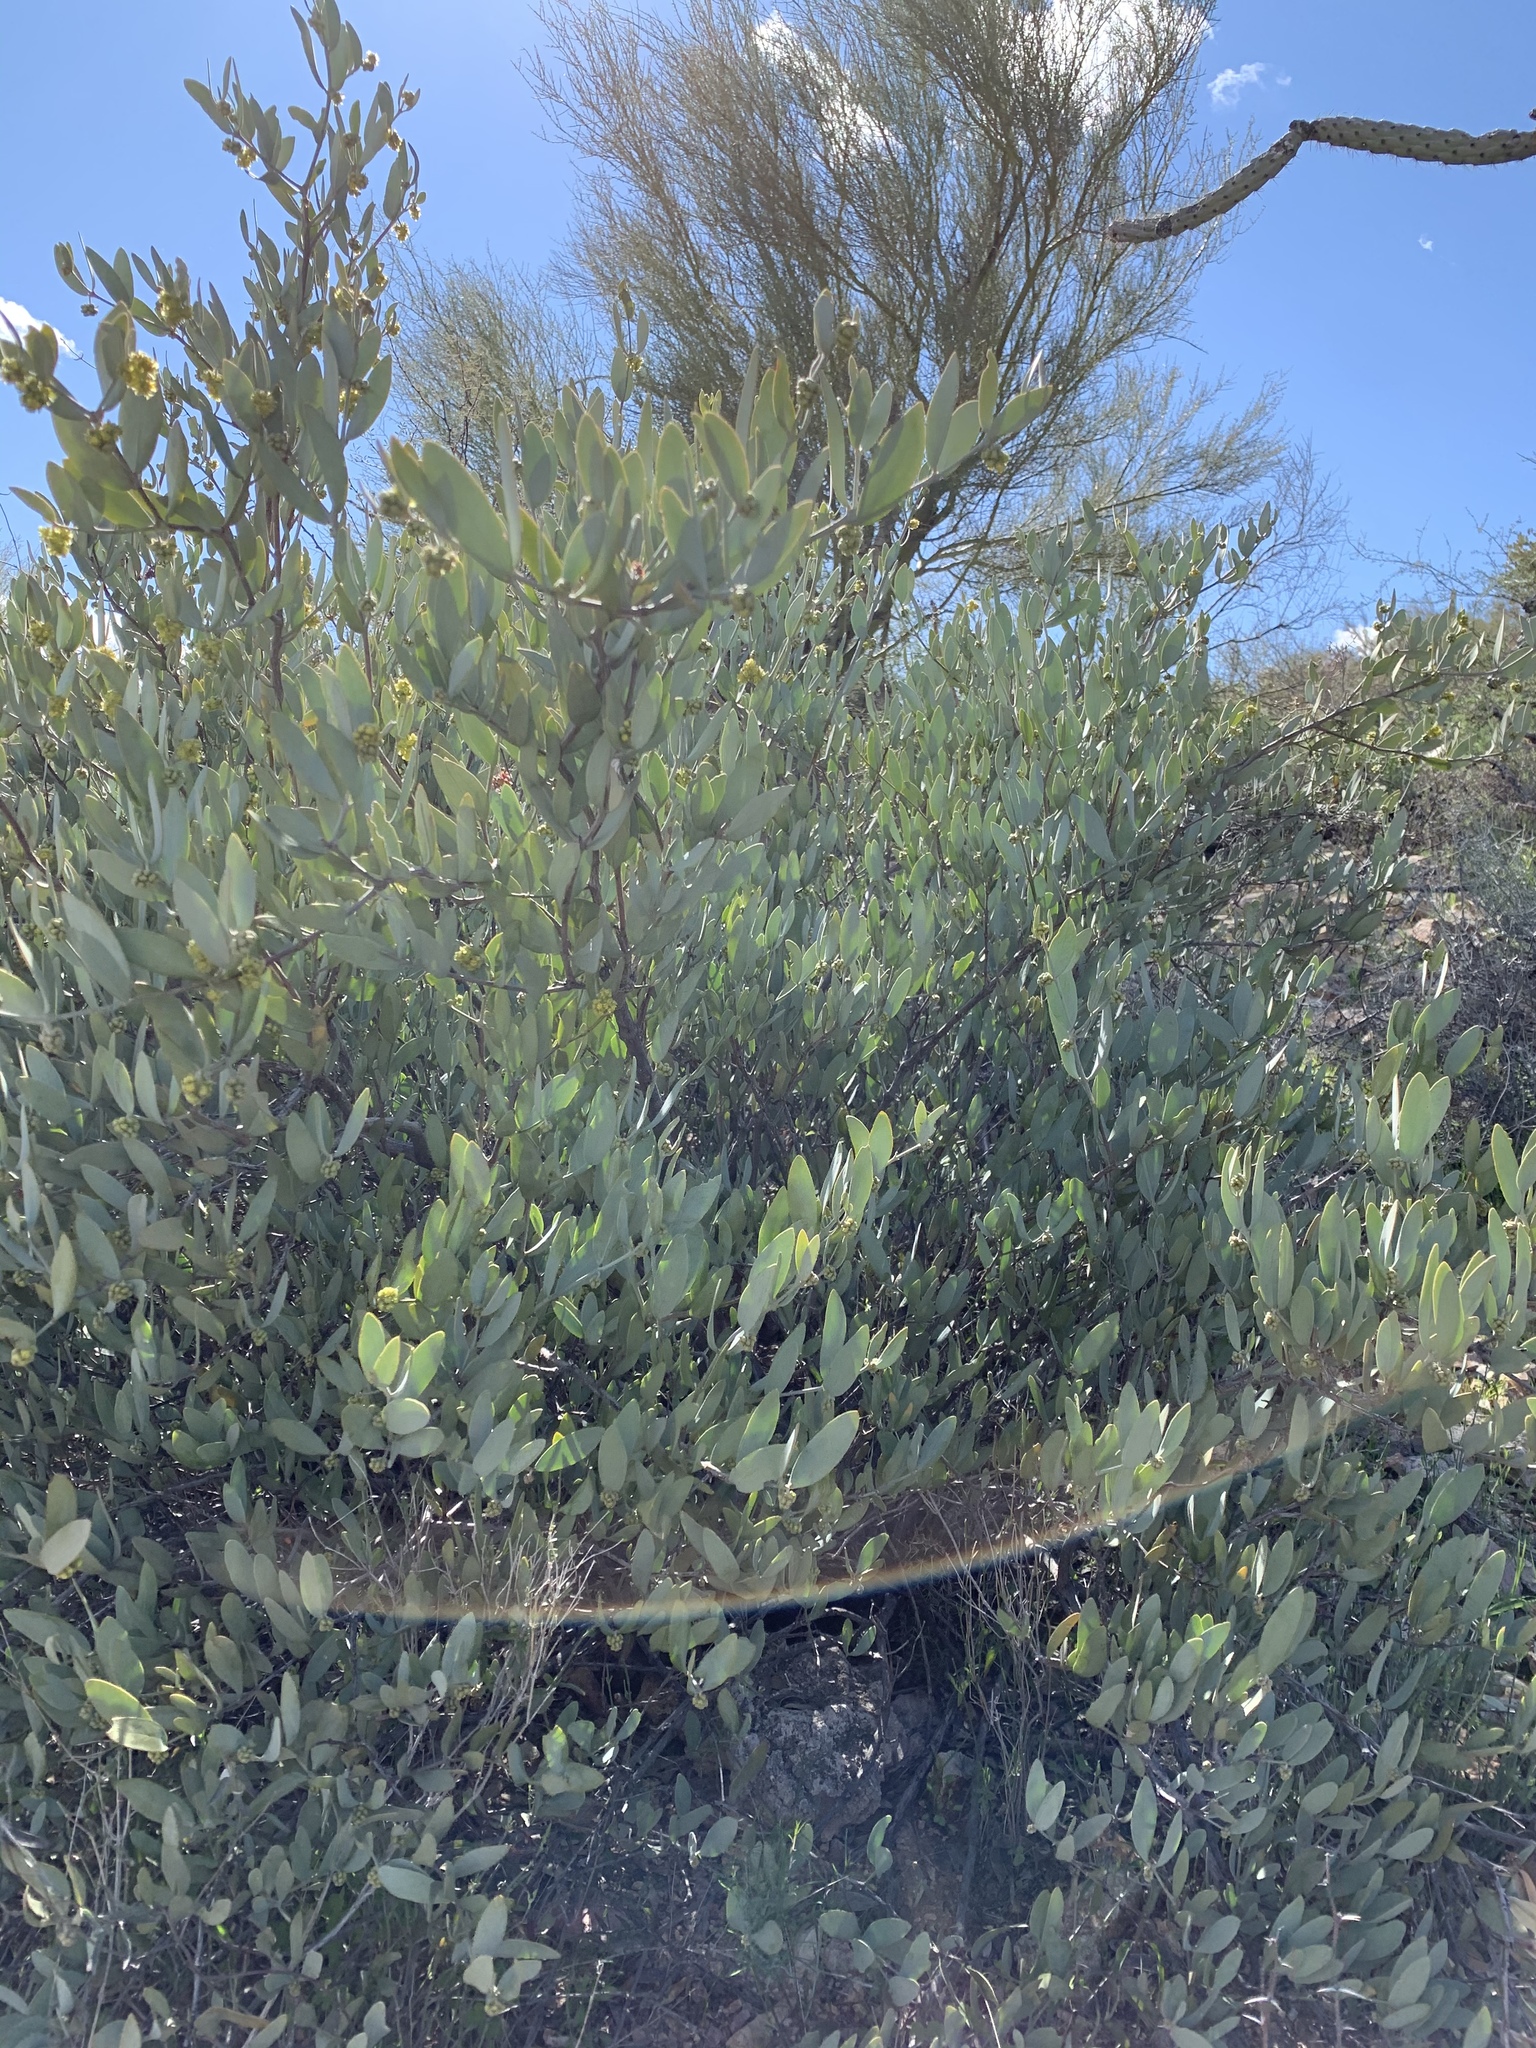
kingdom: Plantae
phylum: Tracheophyta
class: Magnoliopsida
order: Caryophyllales
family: Simmondsiaceae
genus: Simmondsia
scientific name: Simmondsia chinensis
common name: Jojoba
